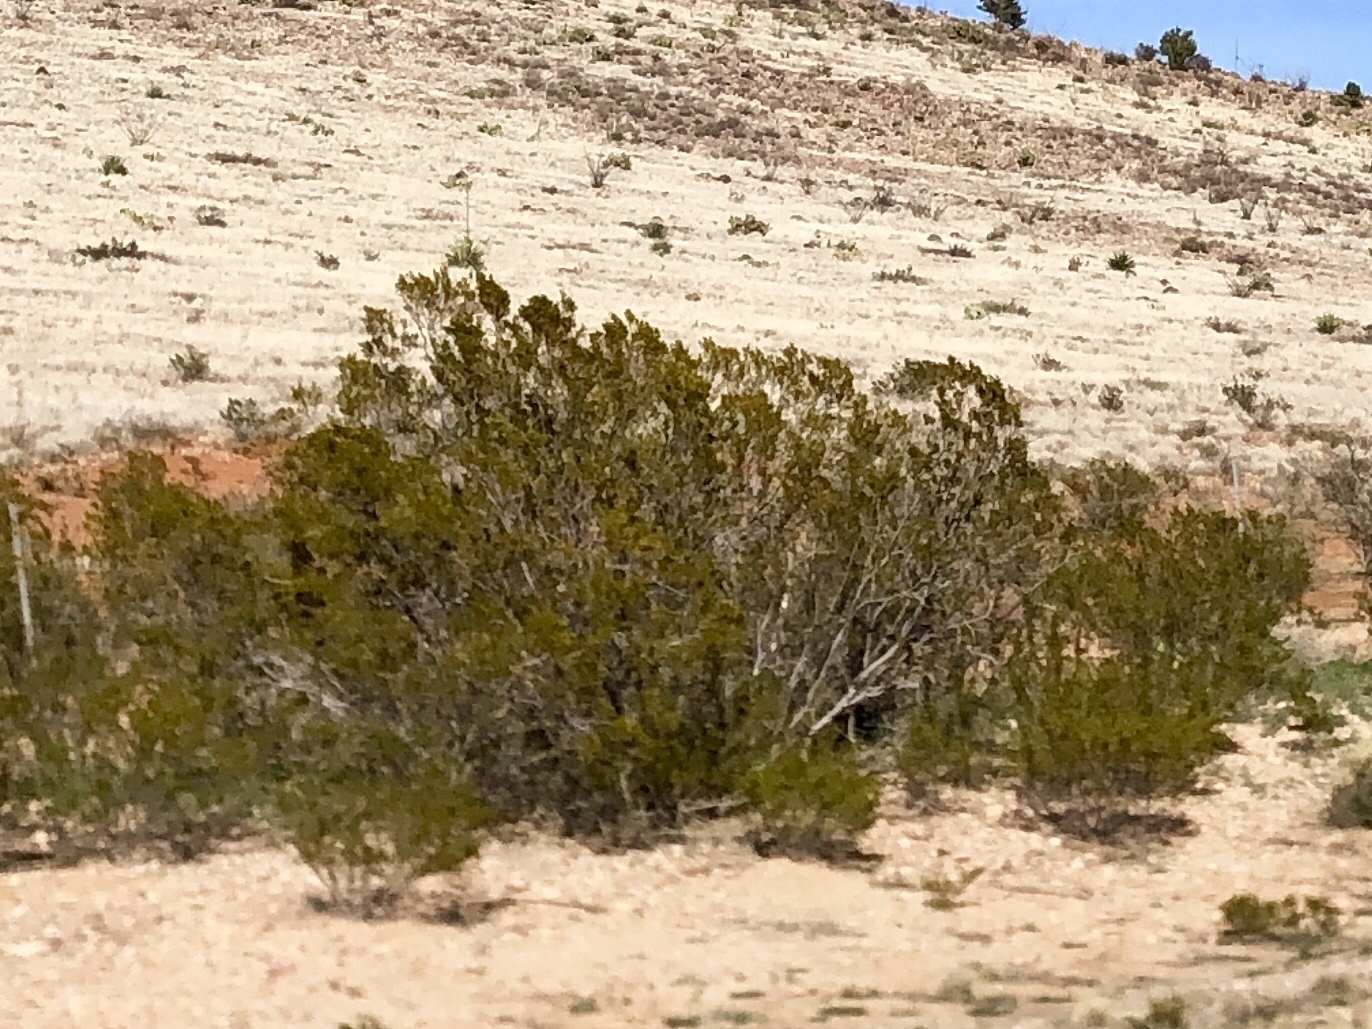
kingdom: Plantae
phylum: Tracheophyta
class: Magnoliopsida
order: Zygophyllales
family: Zygophyllaceae
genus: Larrea
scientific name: Larrea tridentata
